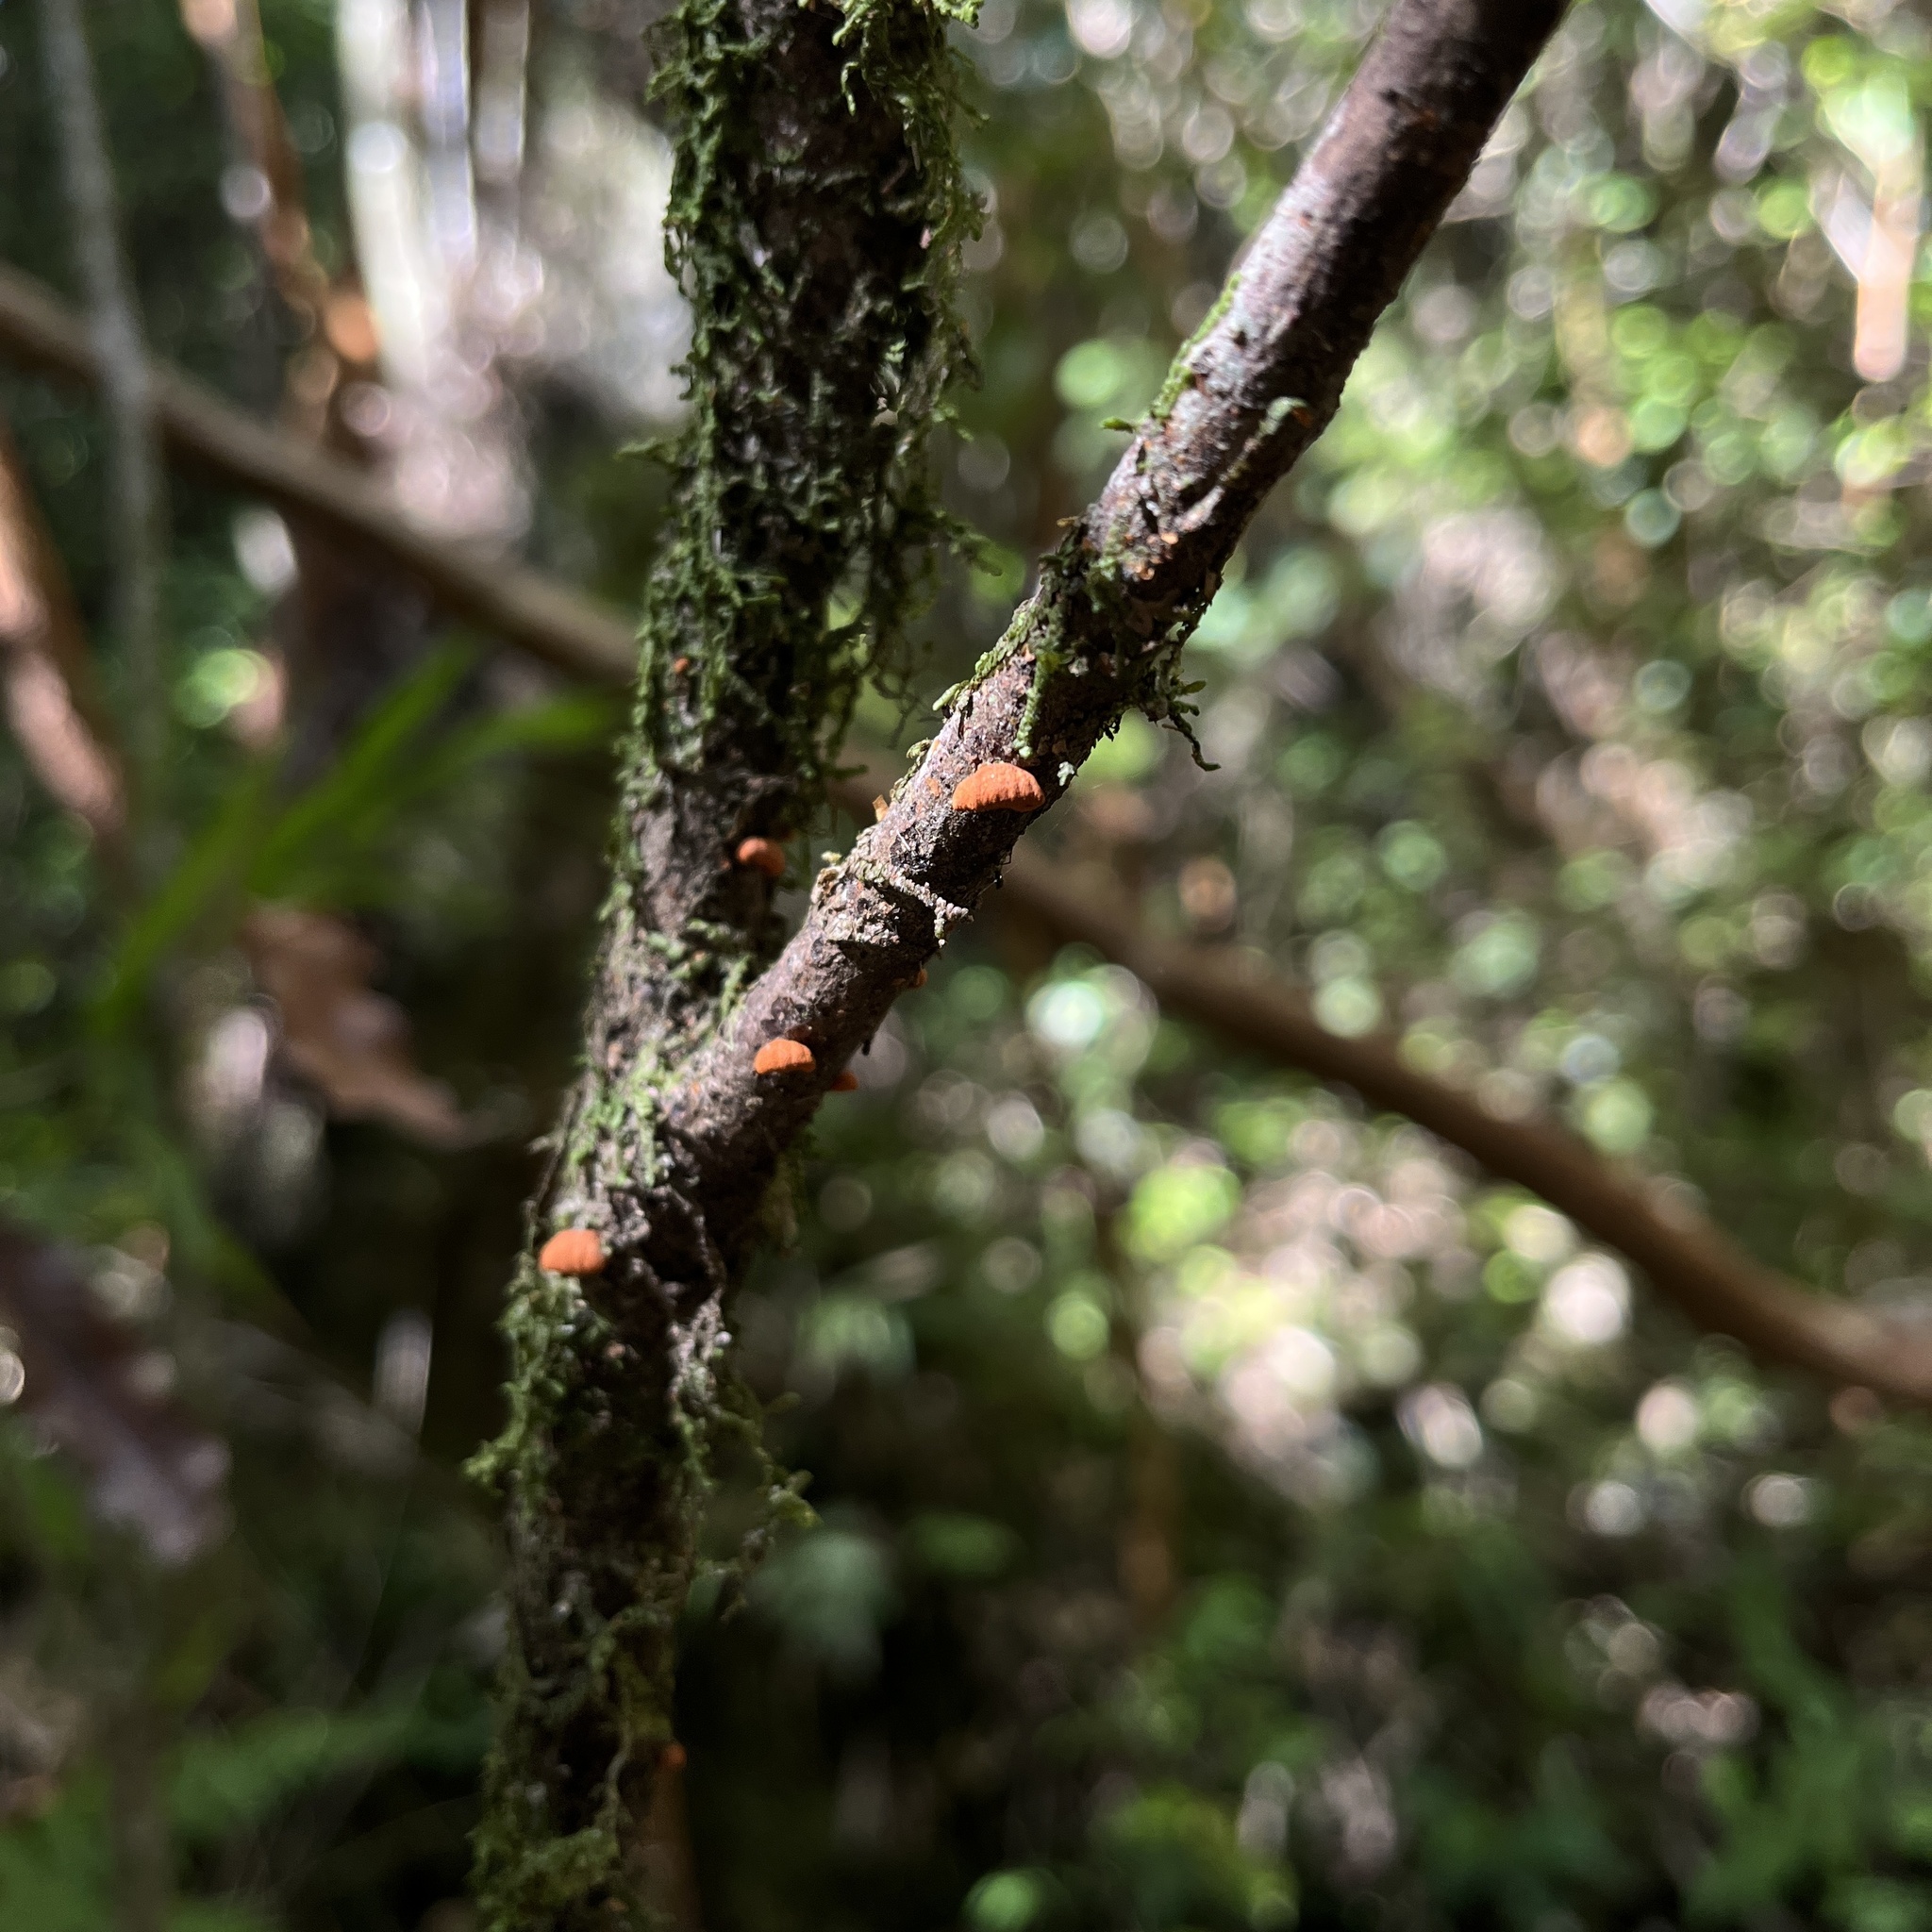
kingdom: Fungi
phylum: Basidiomycota
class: Agaricomycetes
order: Agaricales
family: Omphalotaceae
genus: Anthracophyllum
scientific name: Anthracophyllum discolor
